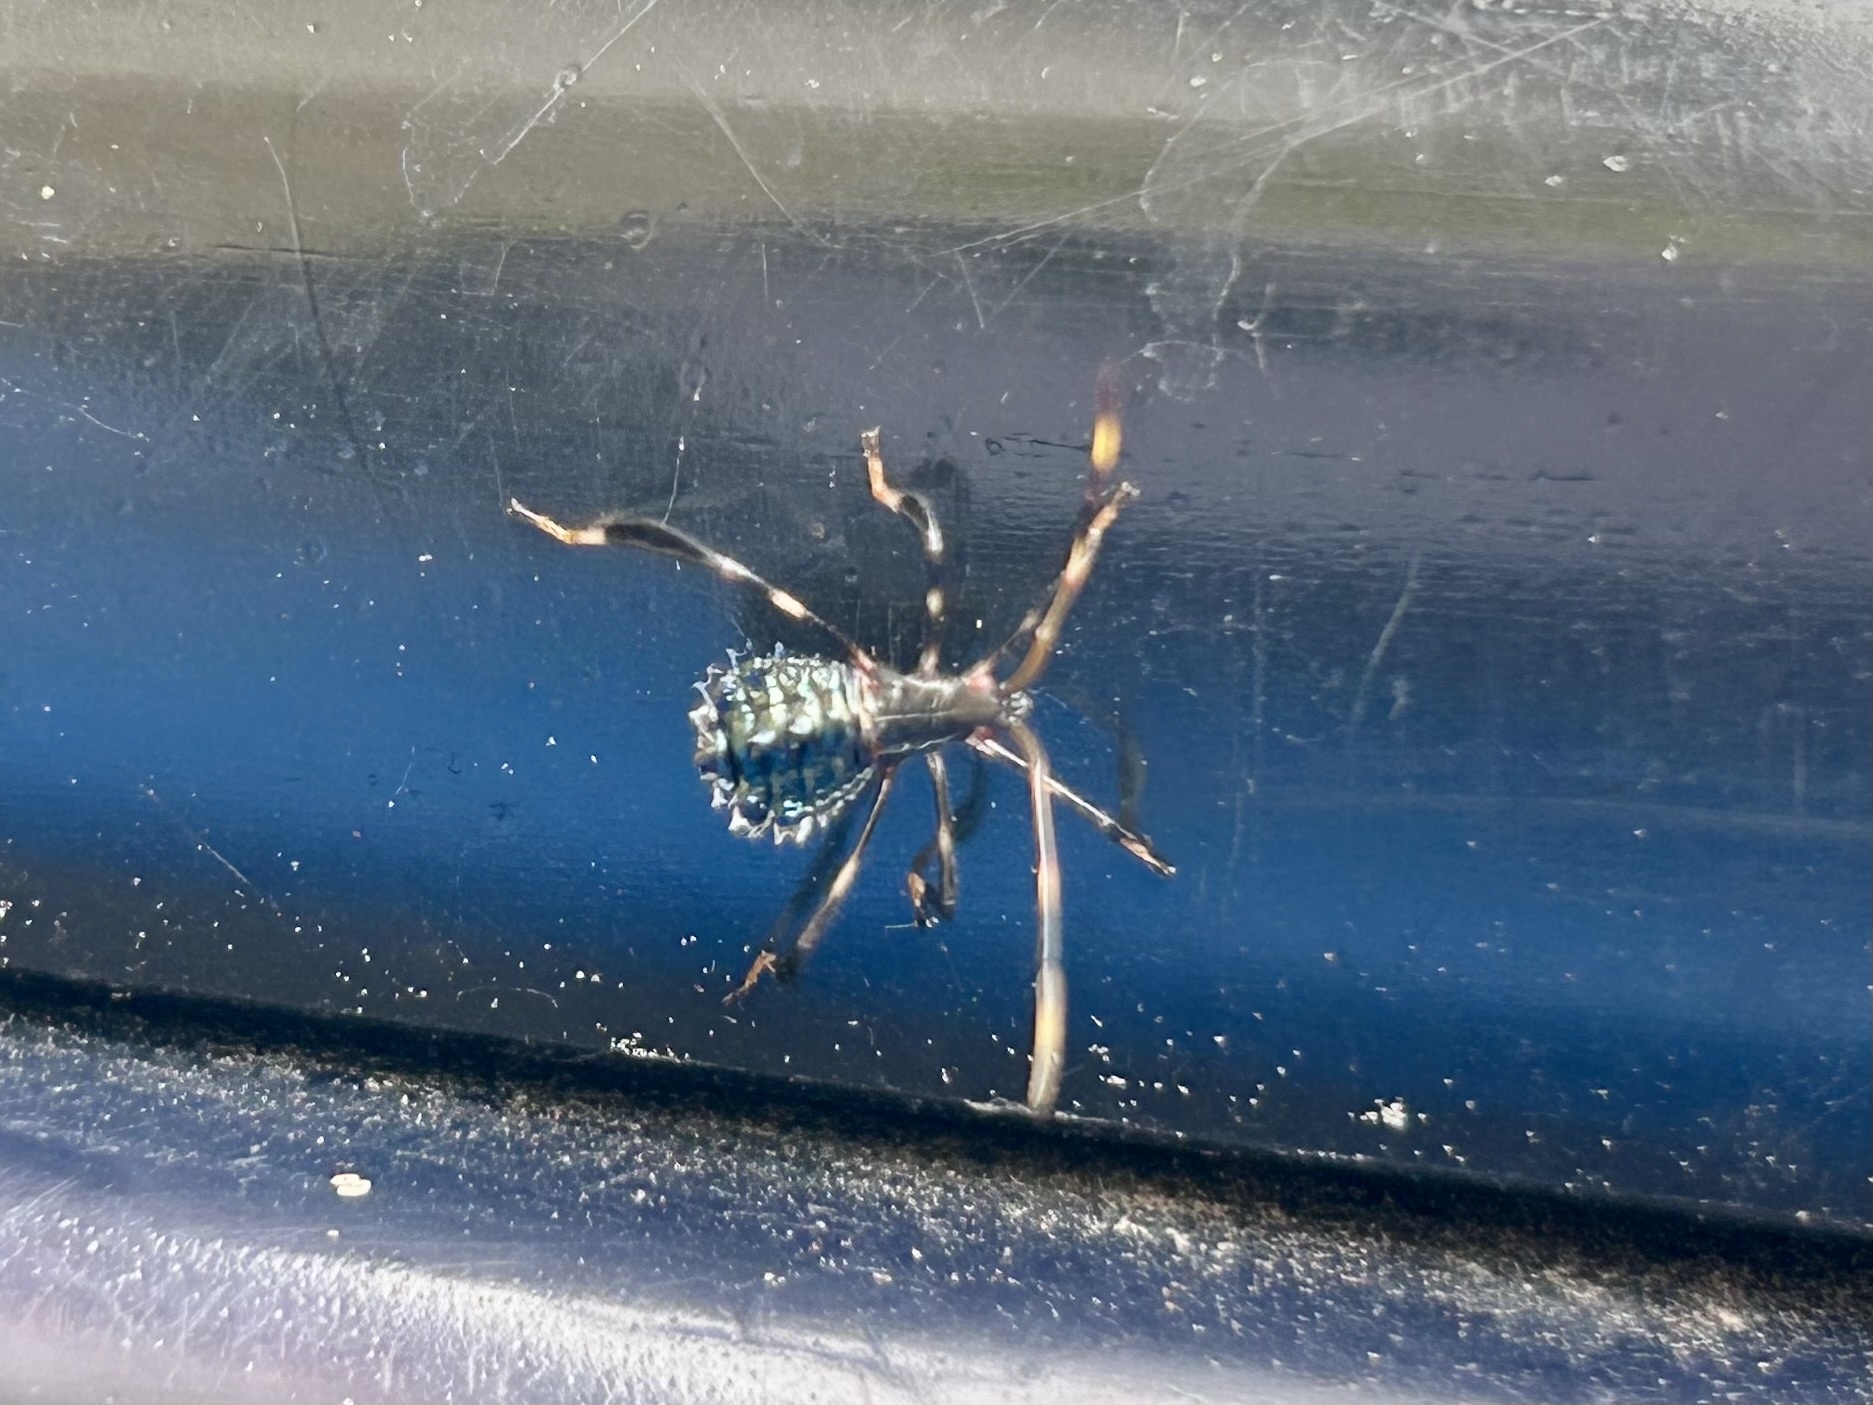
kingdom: Animalia
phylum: Arthropoda
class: Insecta
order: Hemiptera
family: Coreidae
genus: Acanthocephala
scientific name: Acanthocephala terminalis
